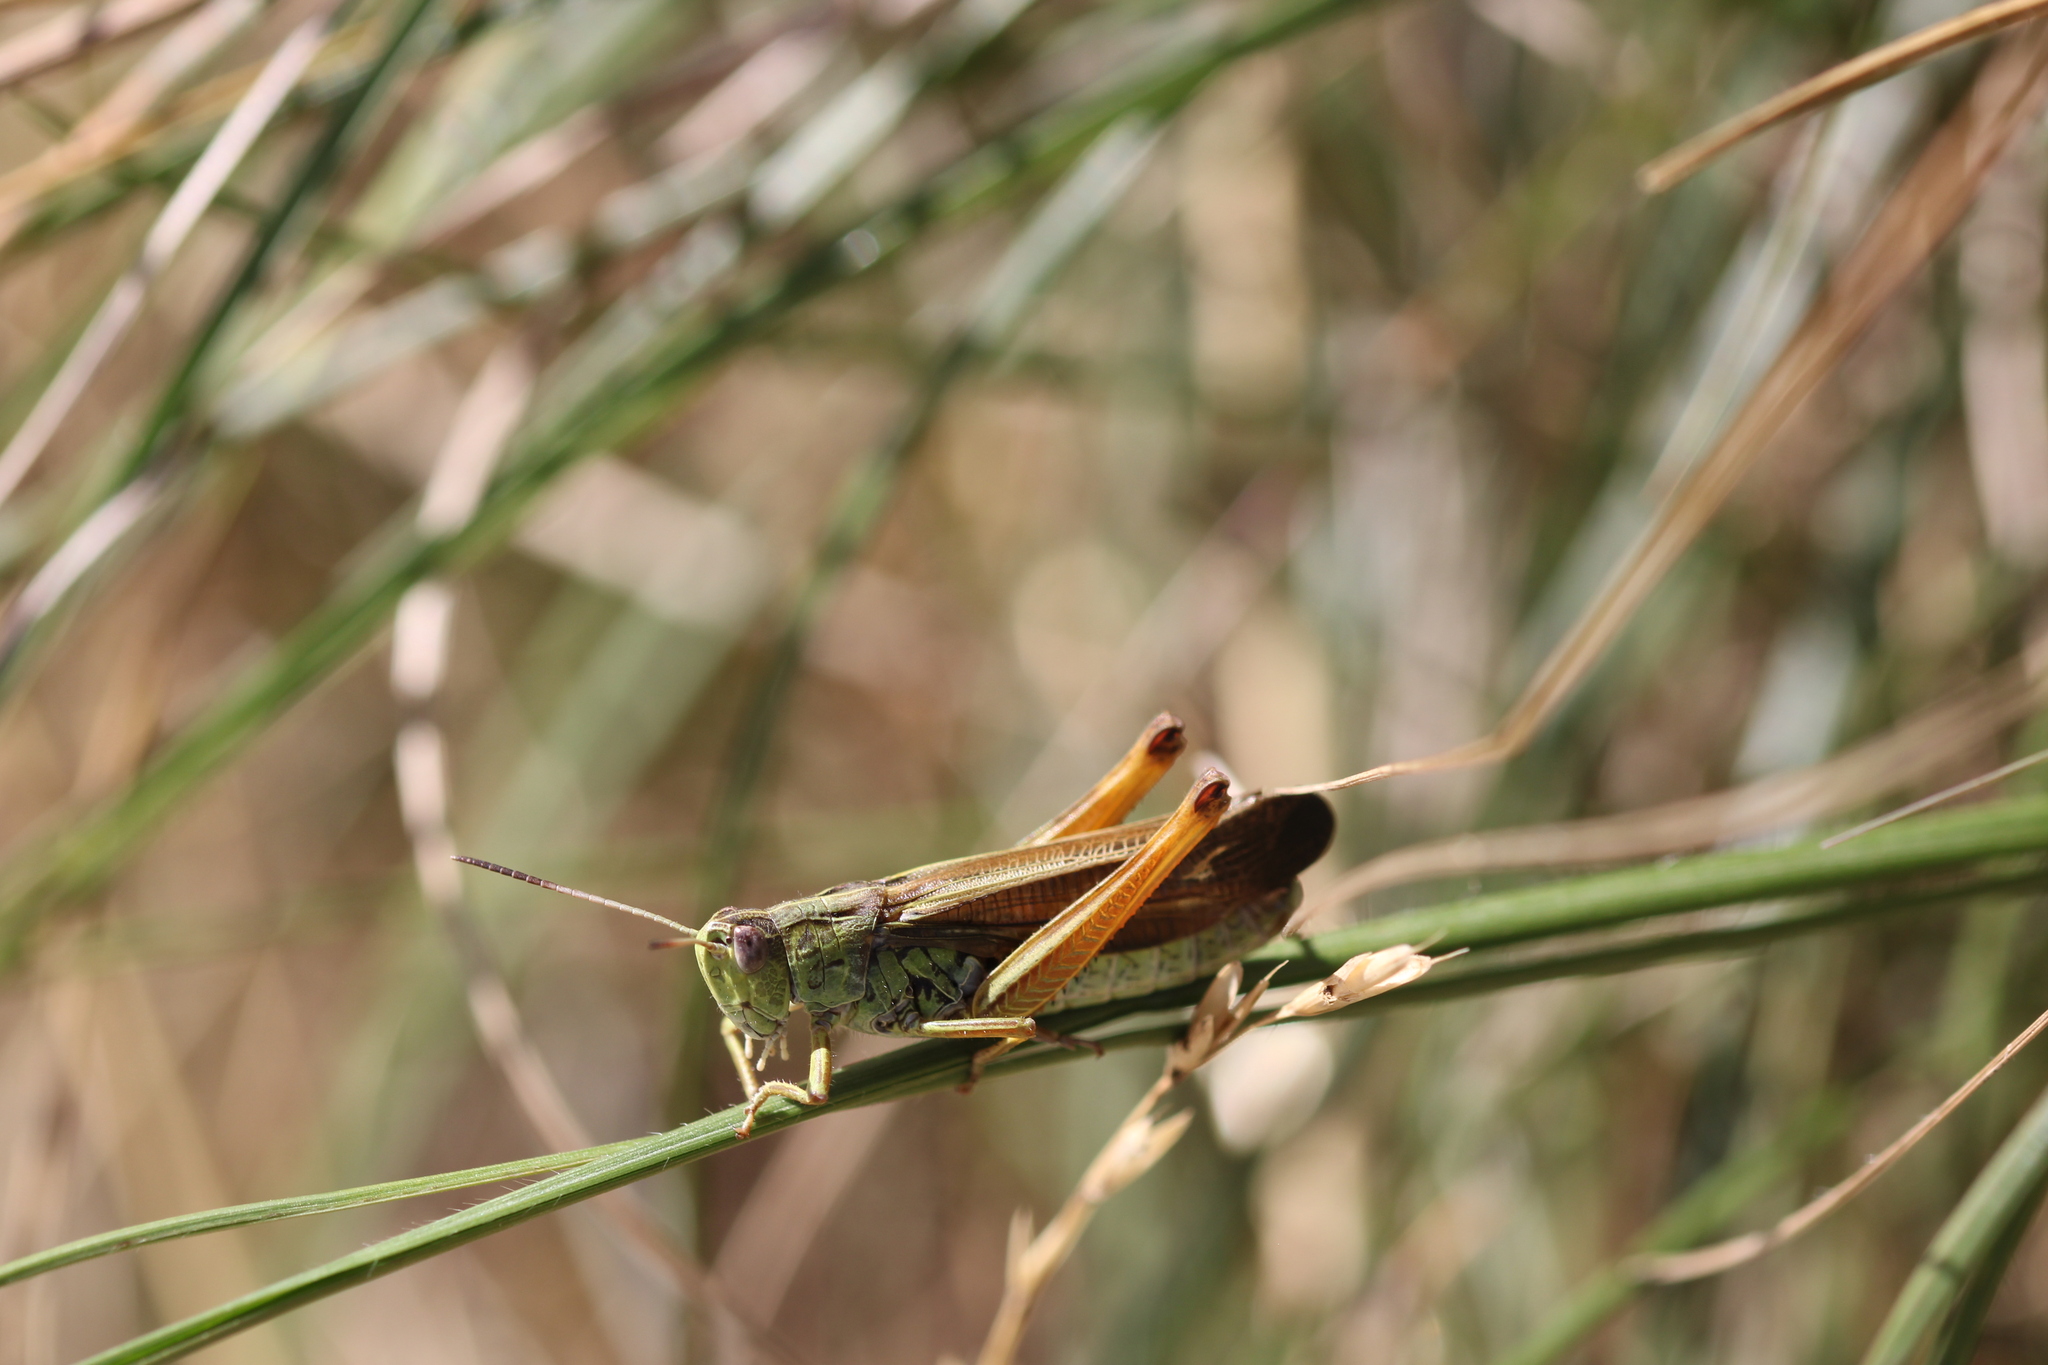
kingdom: Animalia
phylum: Arthropoda
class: Insecta
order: Orthoptera
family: Acrididae
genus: Stauroderus
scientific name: Stauroderus scalaris
